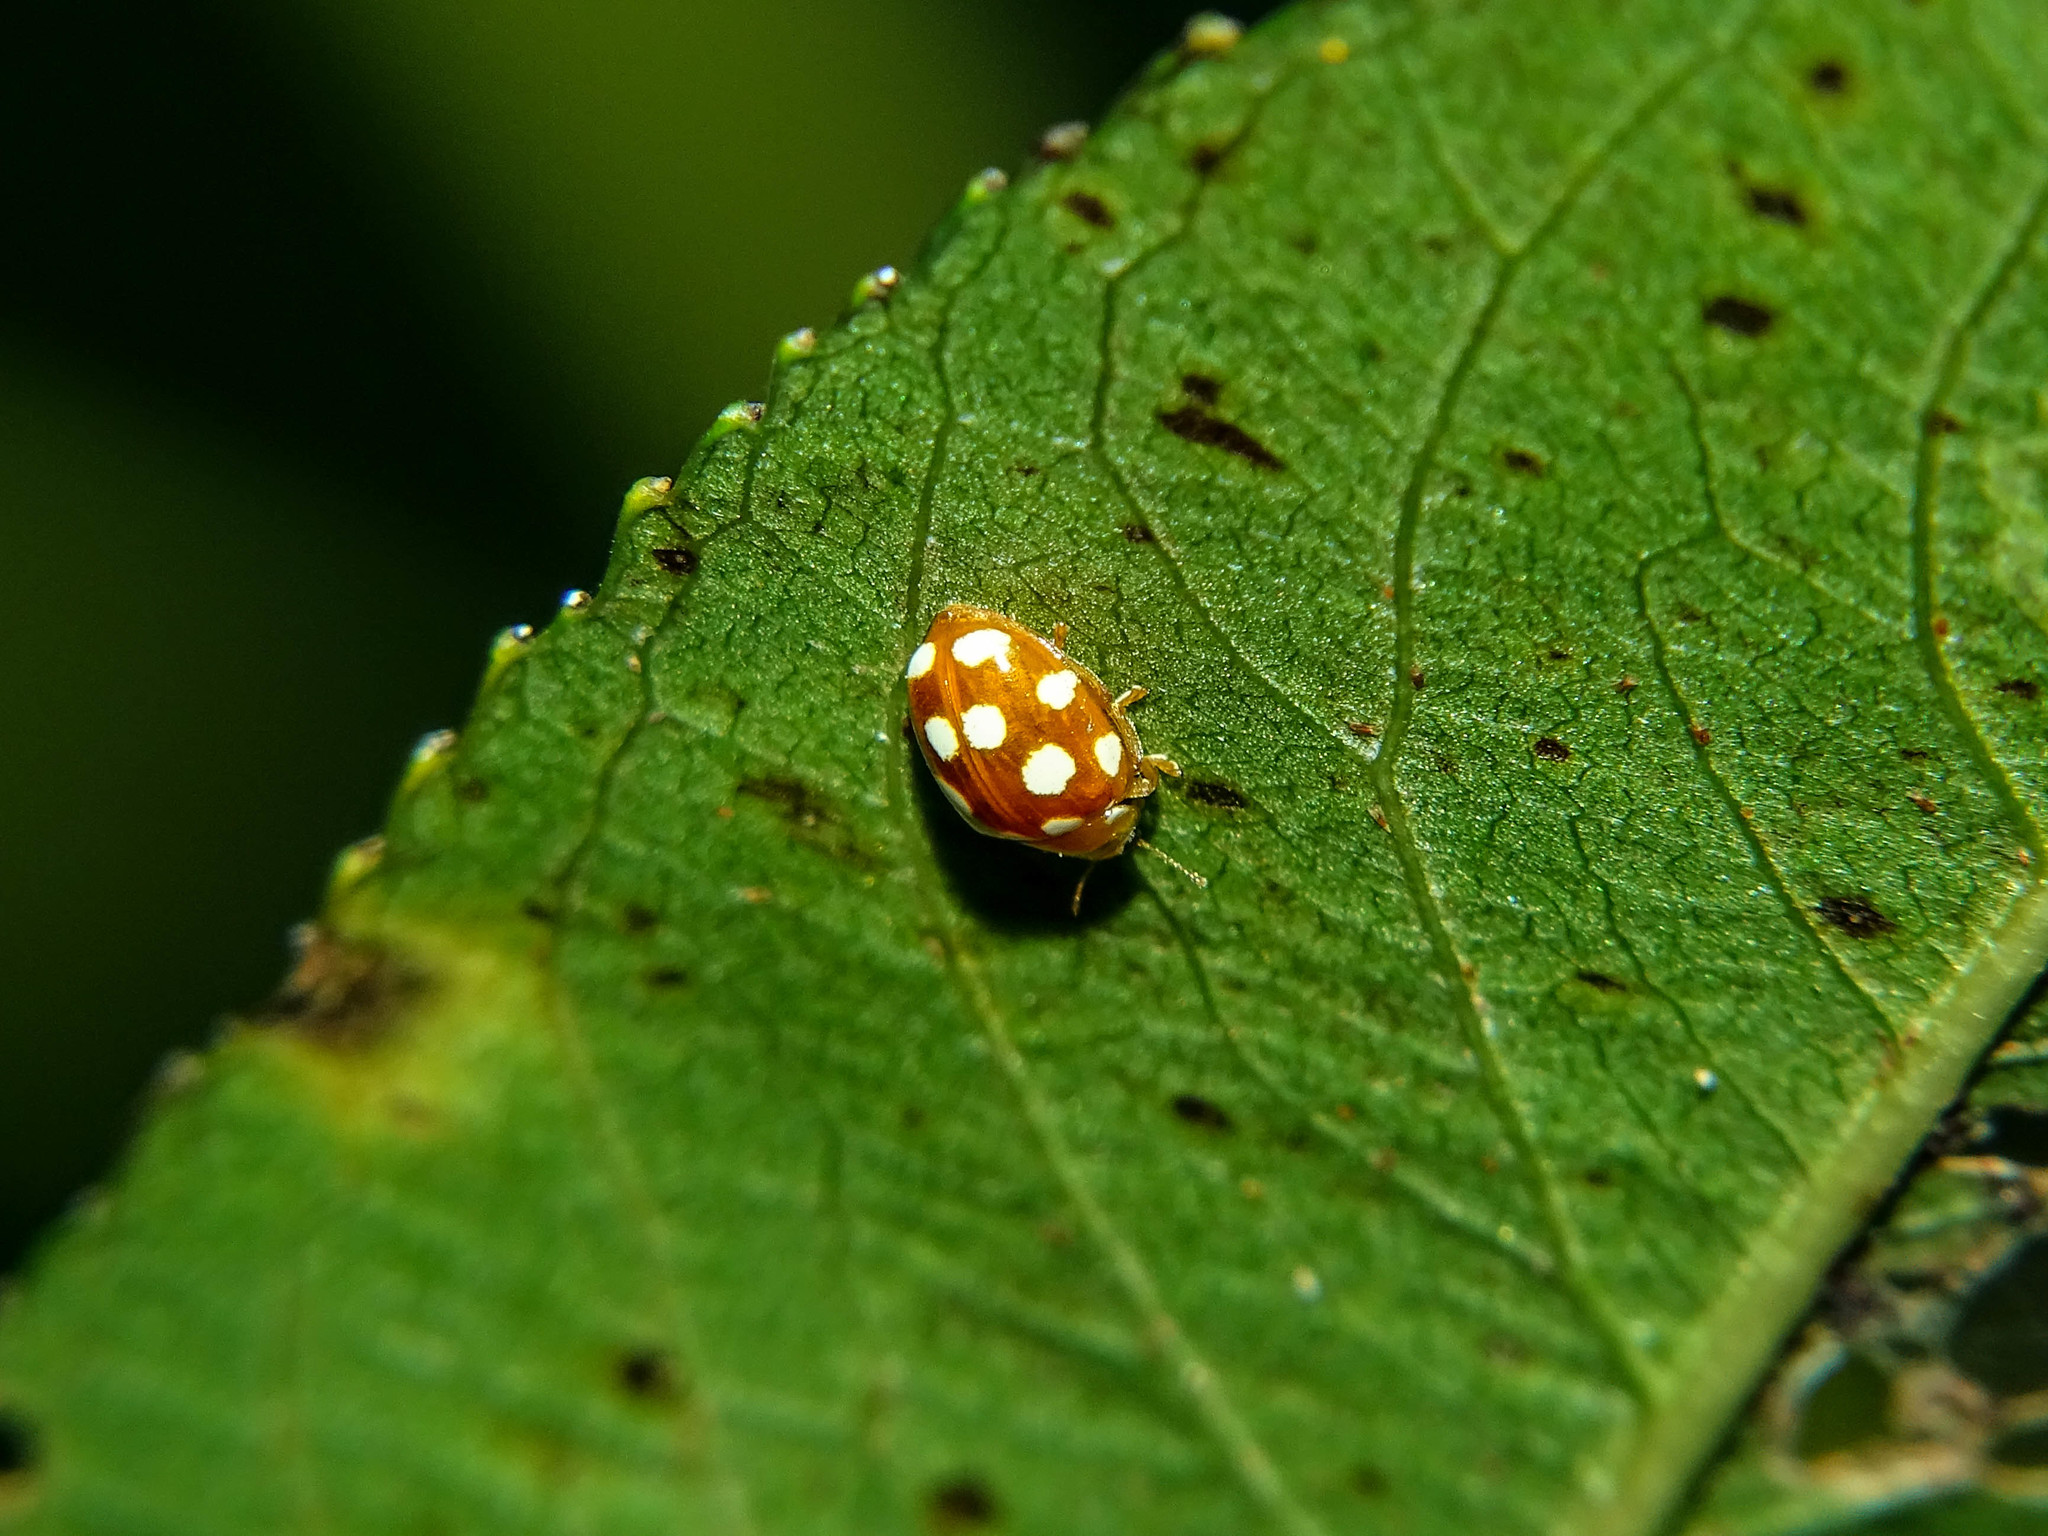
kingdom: Animalia
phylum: Arthropoda
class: Insecta
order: Coleoptera
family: Coccinellidae
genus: Vibidia
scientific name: Vibidia duodecimguttata
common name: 12-spot ladybird
